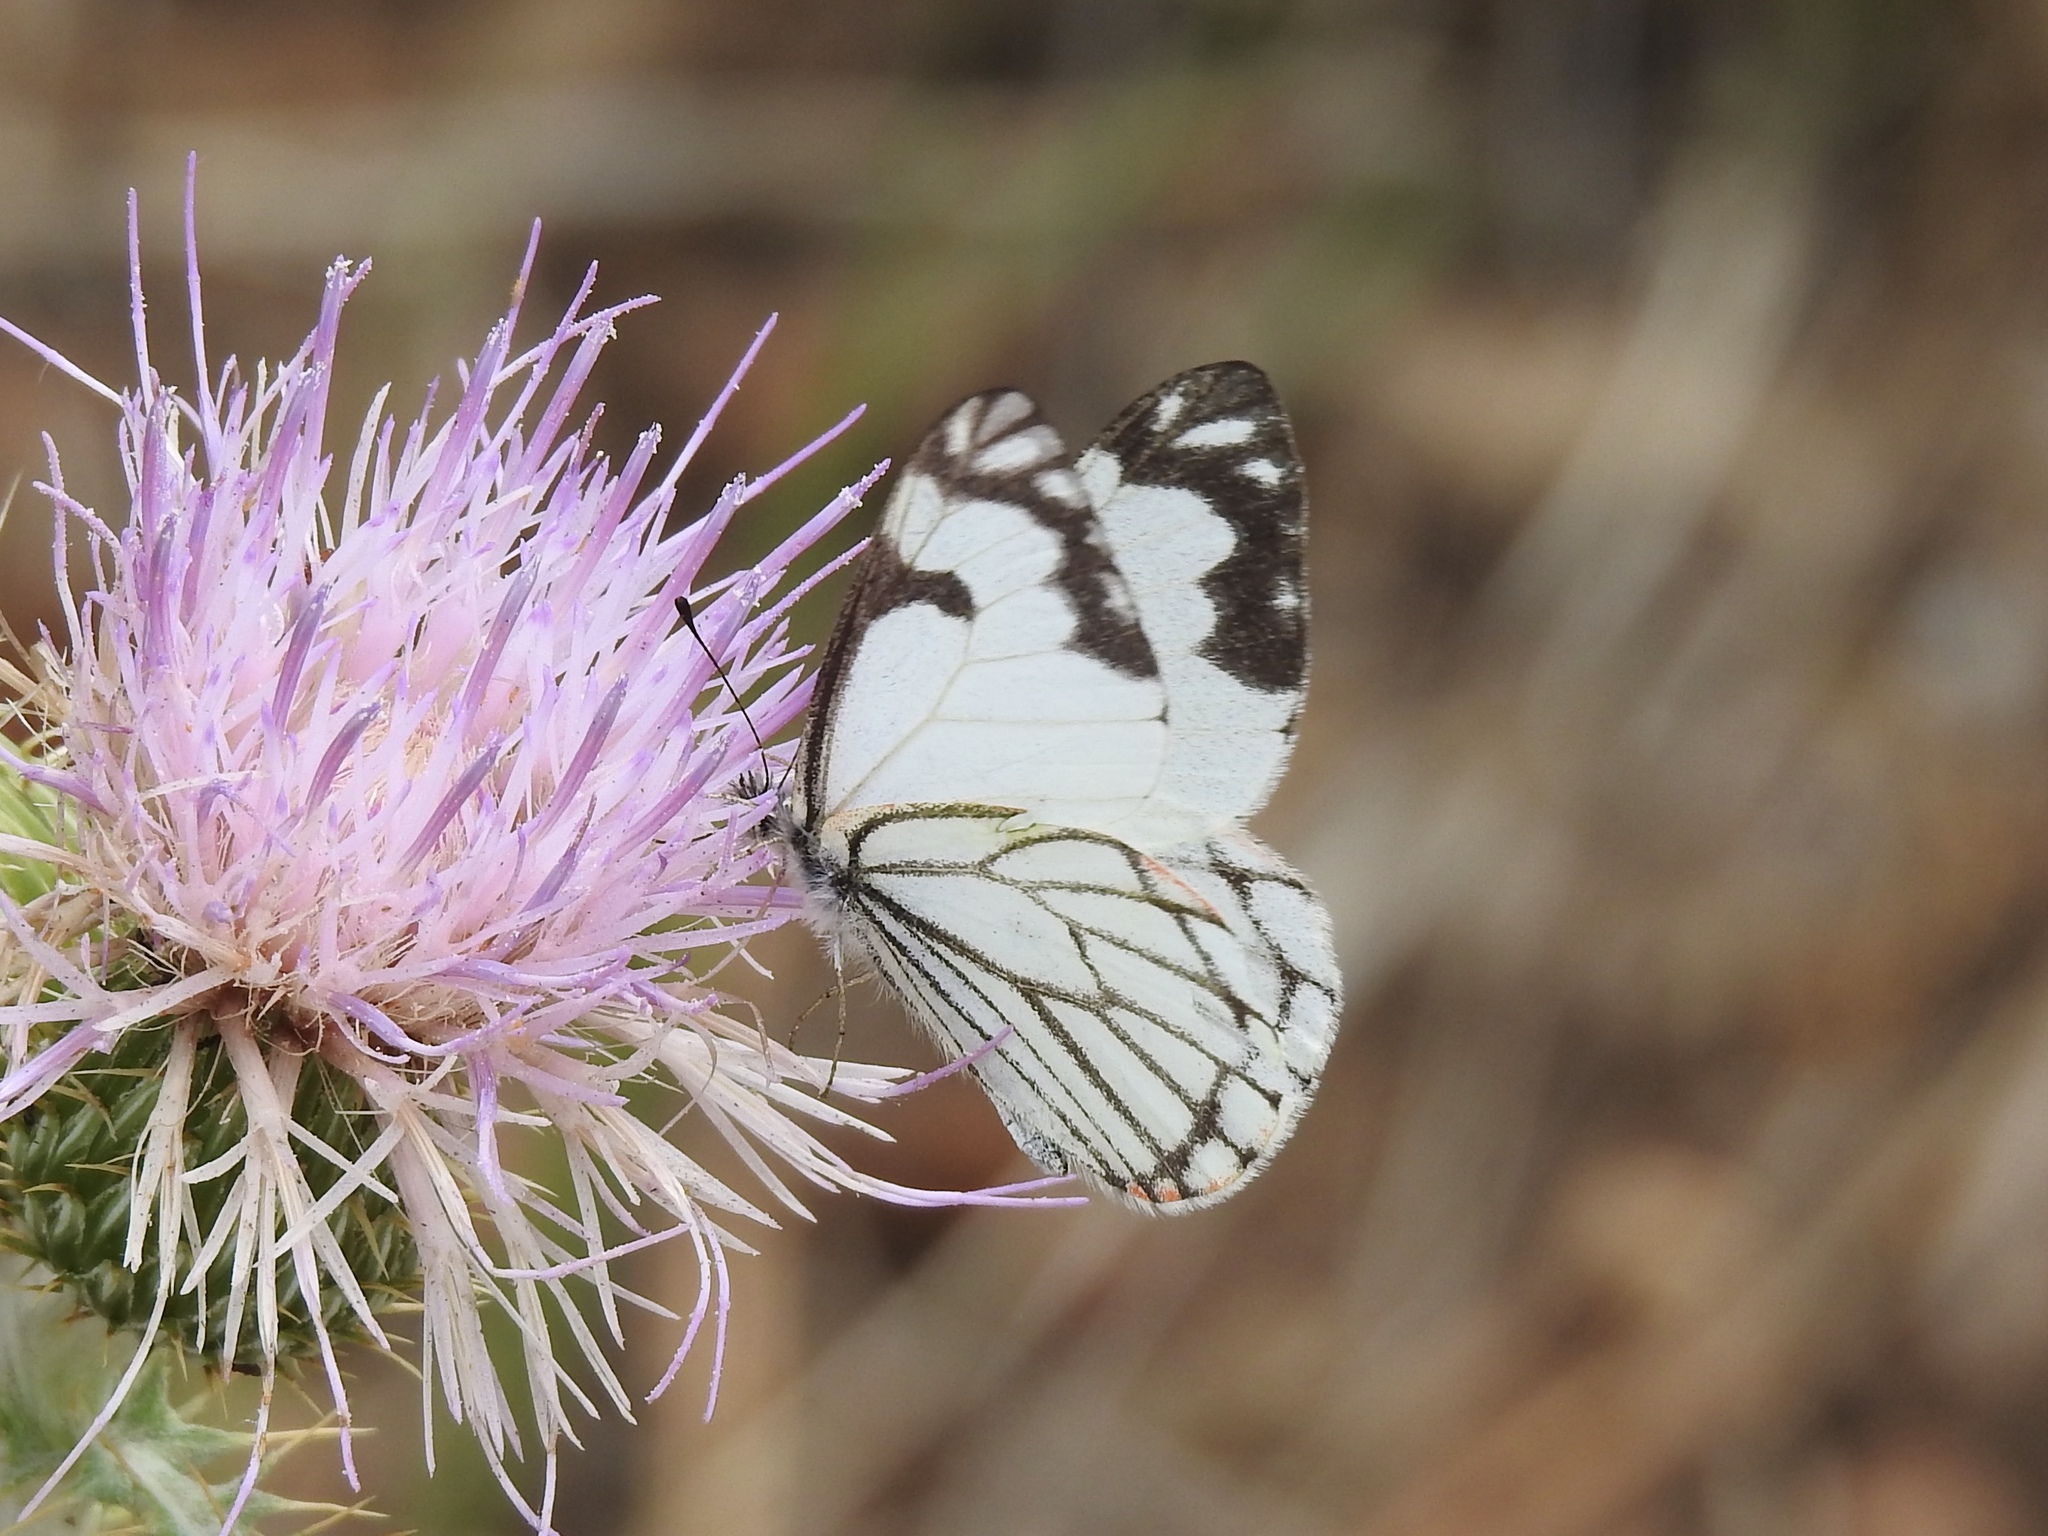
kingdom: Animalia
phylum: Arthropoda
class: Insecta
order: Lepidoptera
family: Pieridae
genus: Neophasia
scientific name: Neophasia menapia
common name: Pine white
